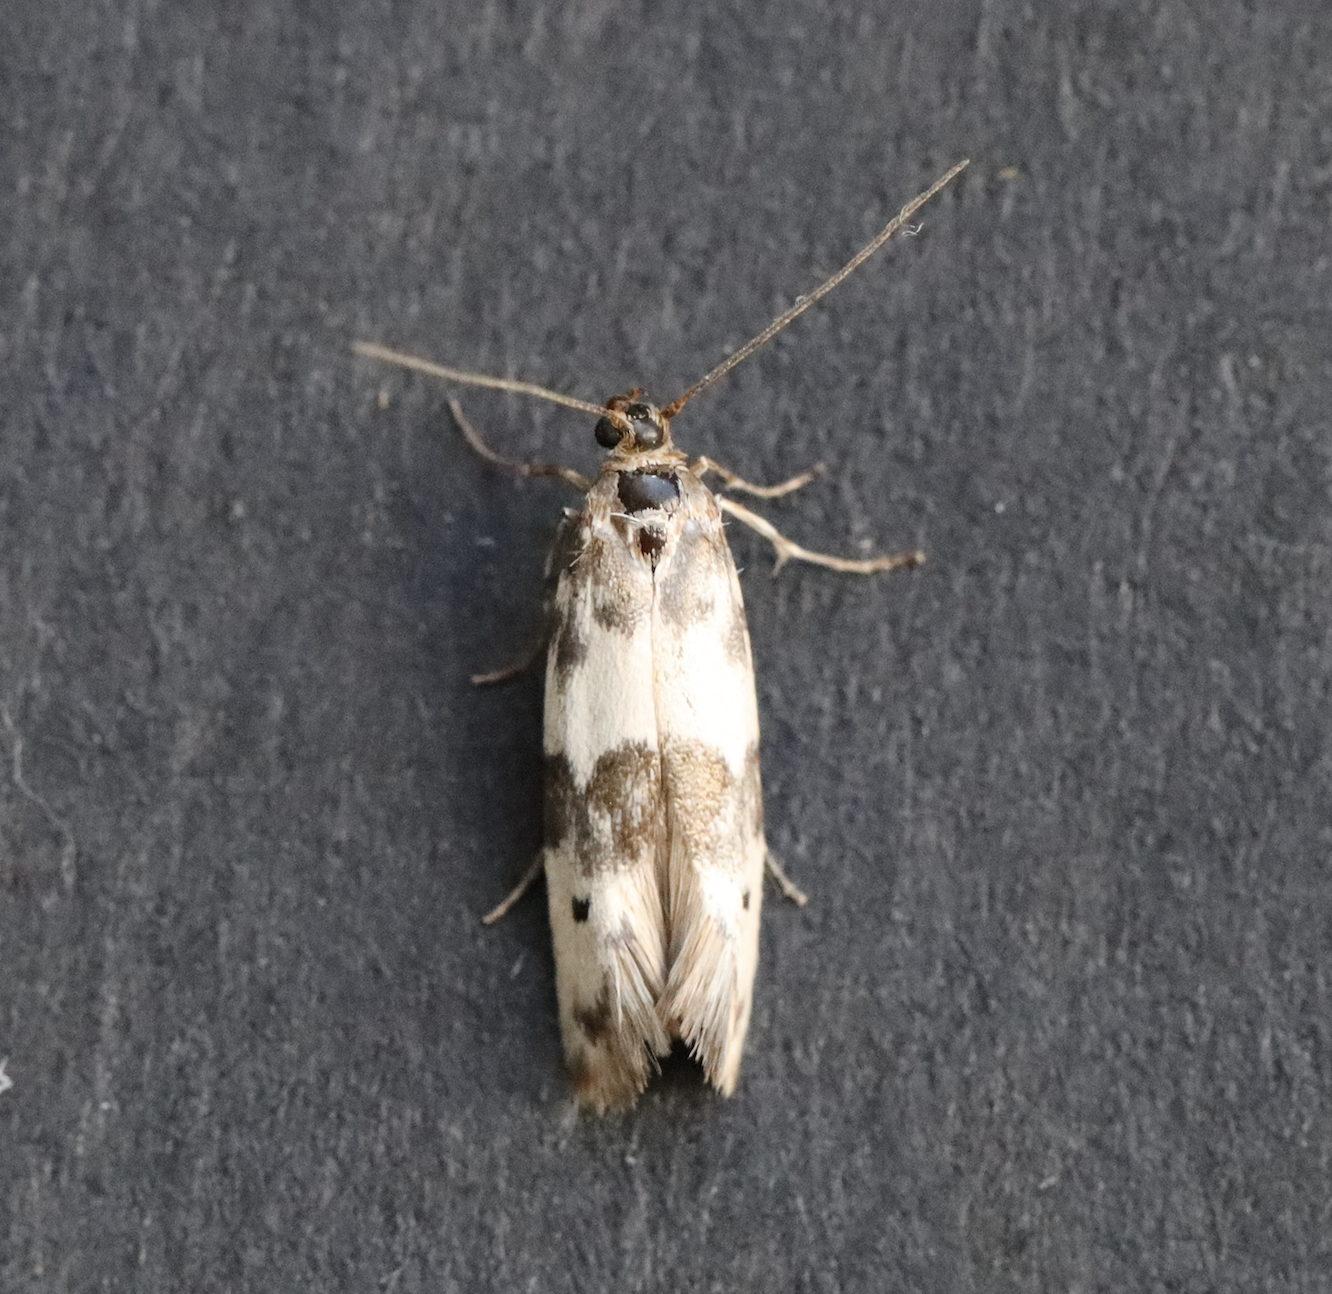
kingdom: Animalia
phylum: Arthropoda
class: Insecta
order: Lepidoptera
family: Scythrididae
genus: Enolmis
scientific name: Enolmis acanthella
